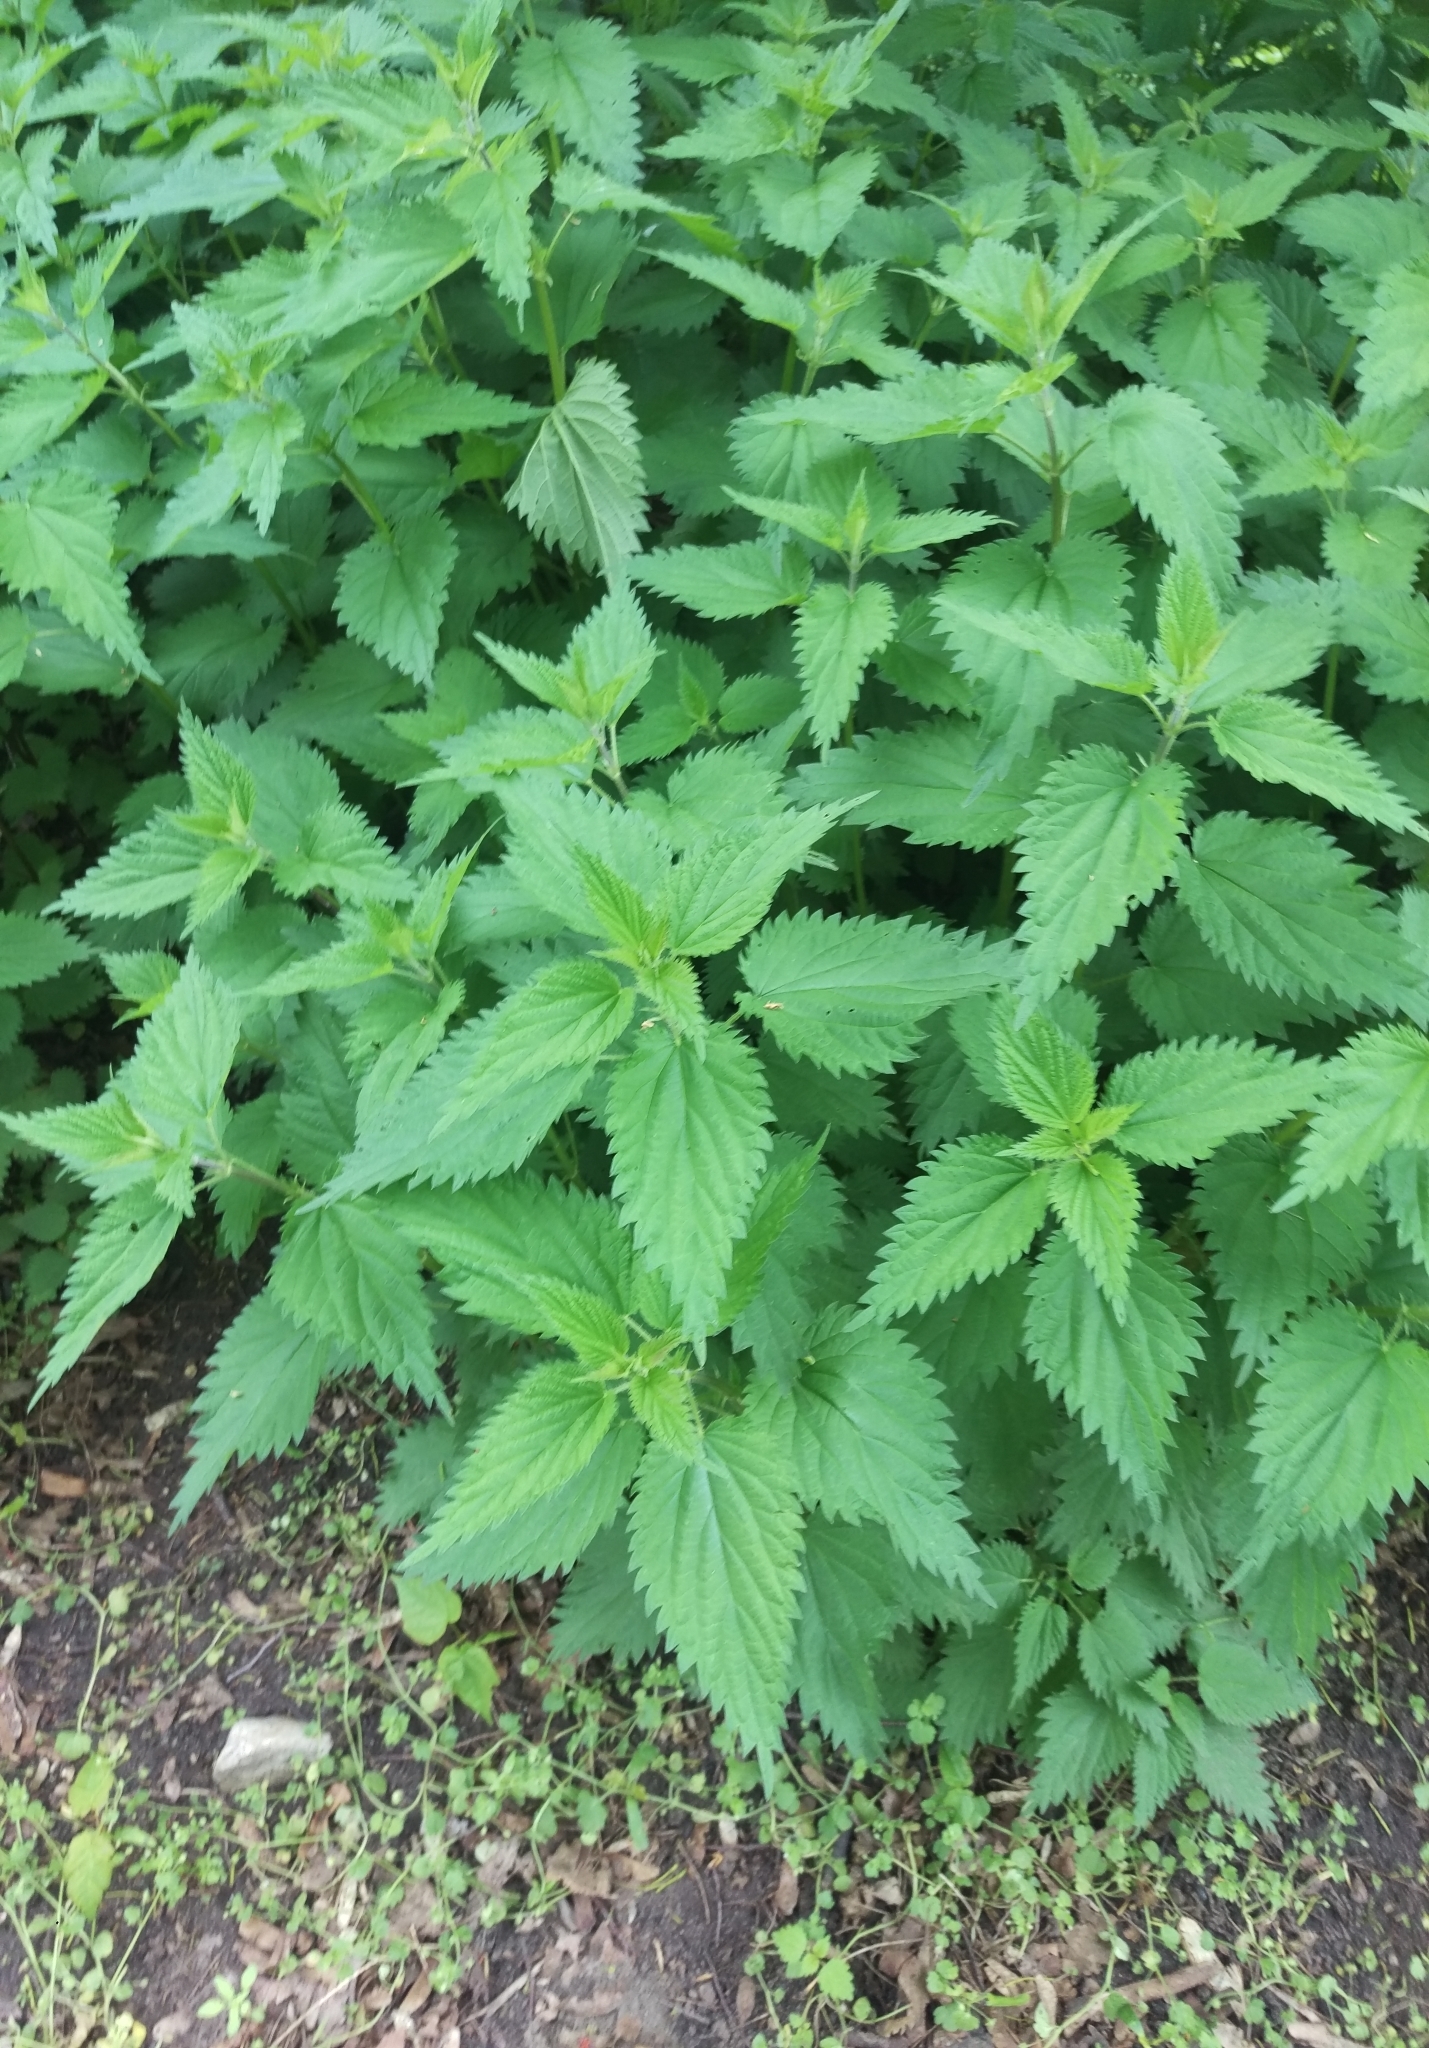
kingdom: Plantae
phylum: Tracheophyta
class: Magnoliopsida
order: Rosales
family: Urticaceae
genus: Urtica
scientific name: Urtica dioica
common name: Common nettle
